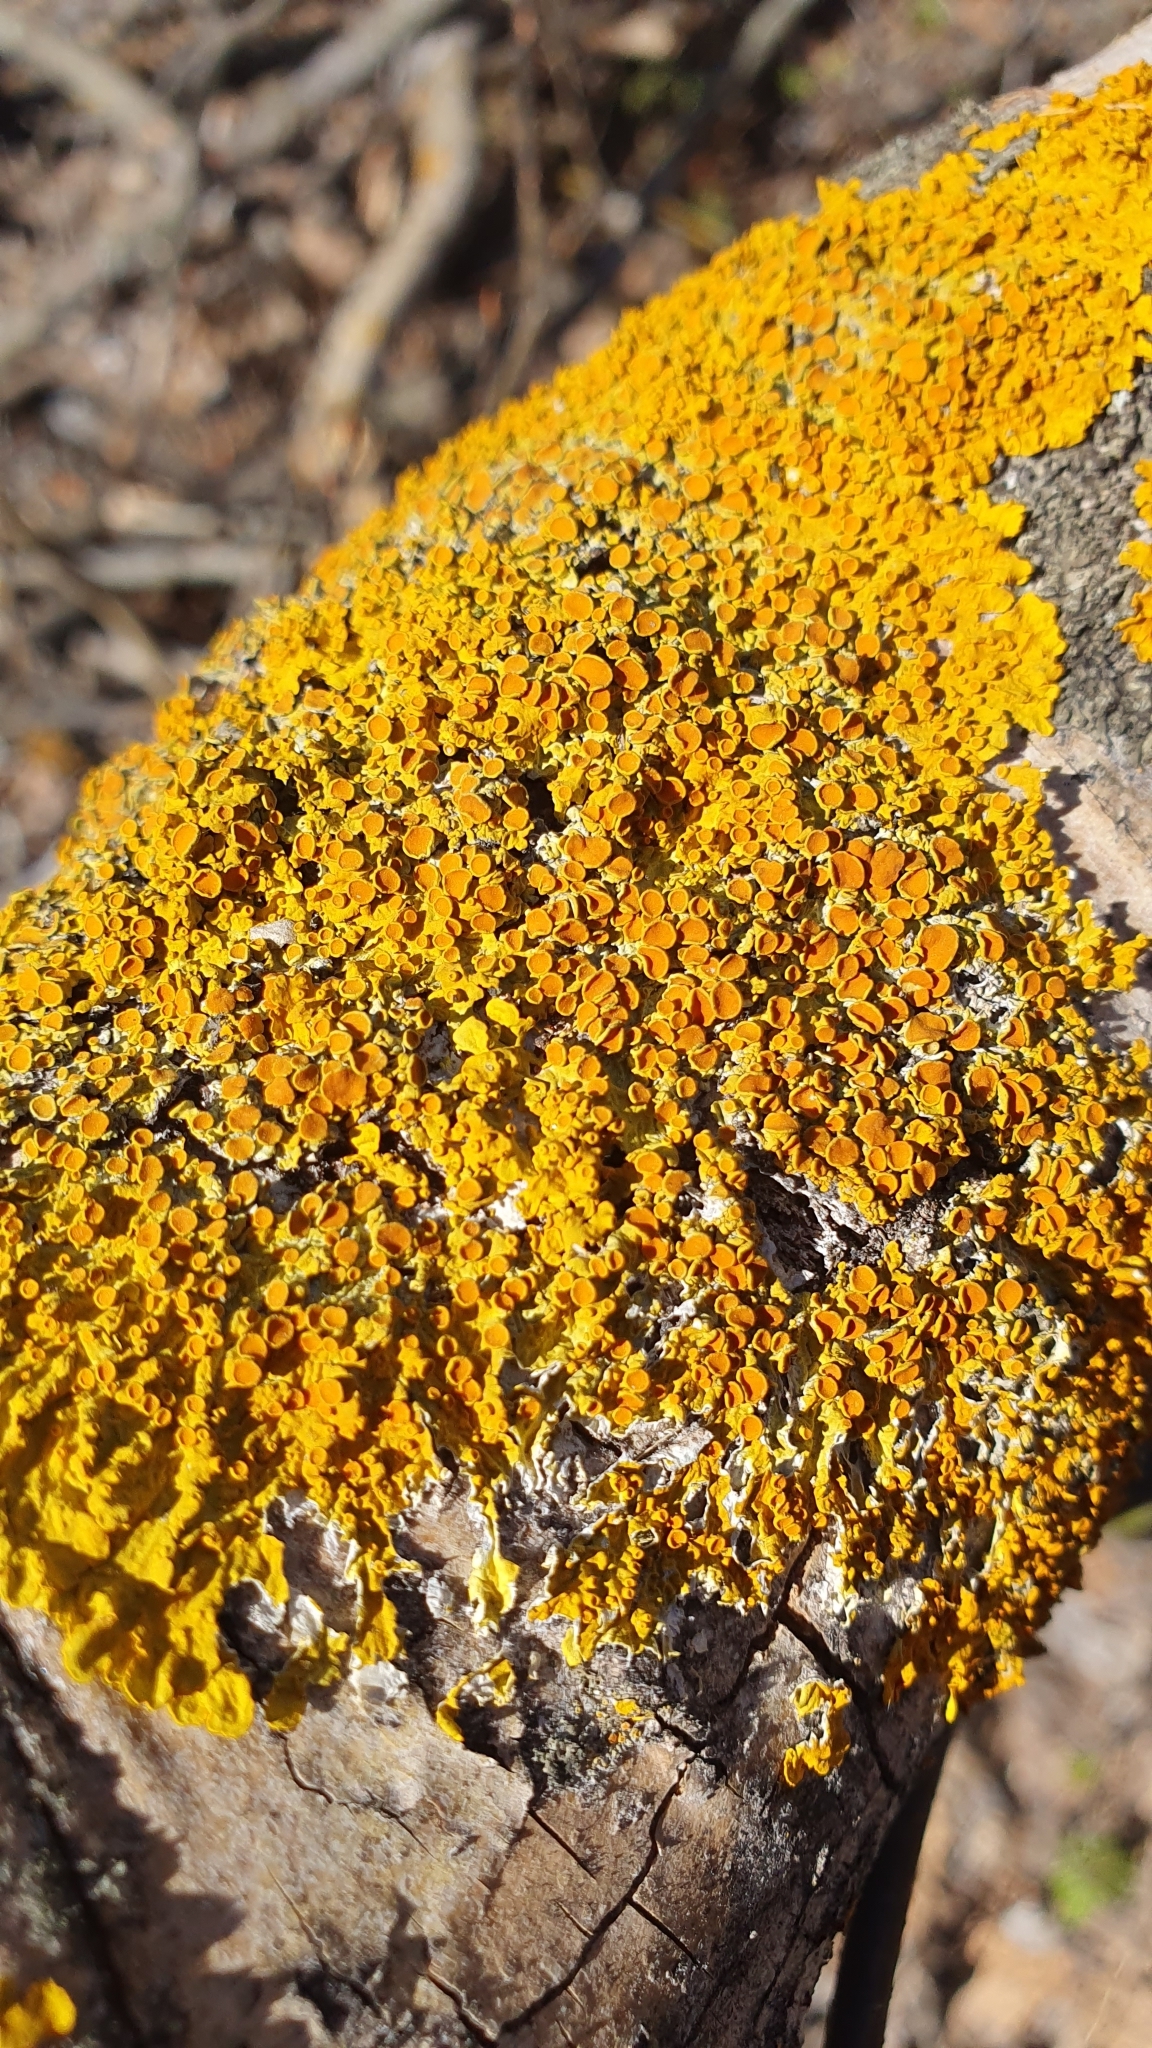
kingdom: Fungi
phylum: Ascomycota
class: Lecanoromycetes
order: Teloschistales
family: Teloschistaceae
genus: Xanthoria
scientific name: Xanthoria parietina
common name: Common orange lichen
